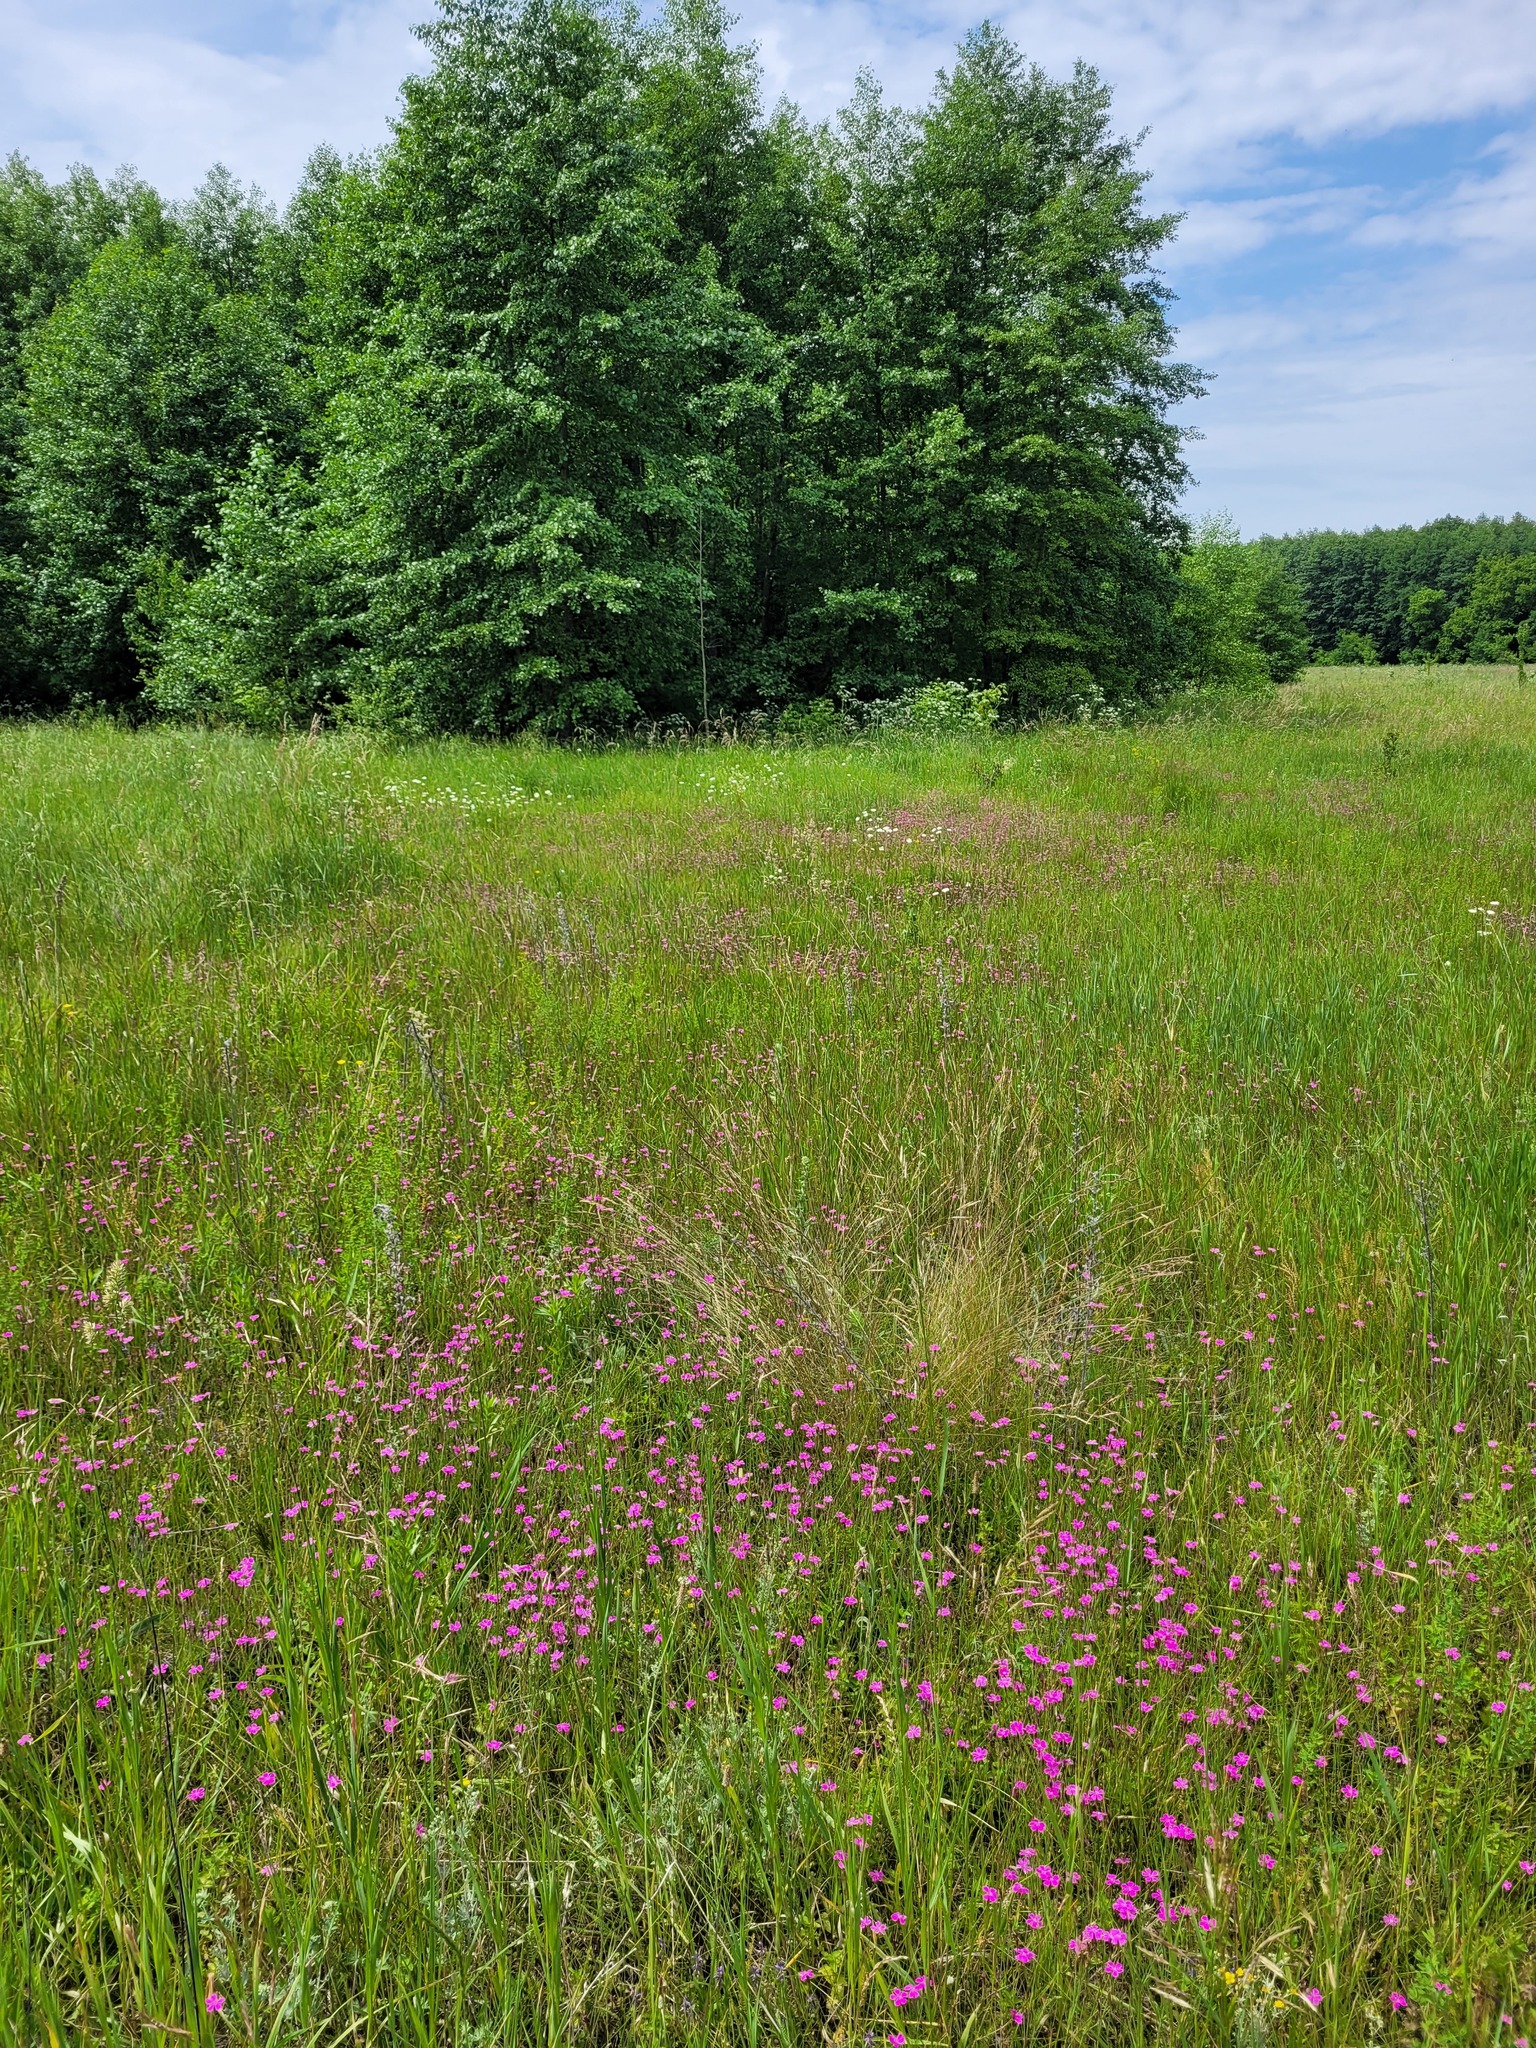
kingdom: Plantae
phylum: Tracheophyta
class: Magnoliopsida
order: Caryophyllales
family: Caryophyllaceae
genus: Dianthus
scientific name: Dianthus deltoides
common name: Maiden pink
